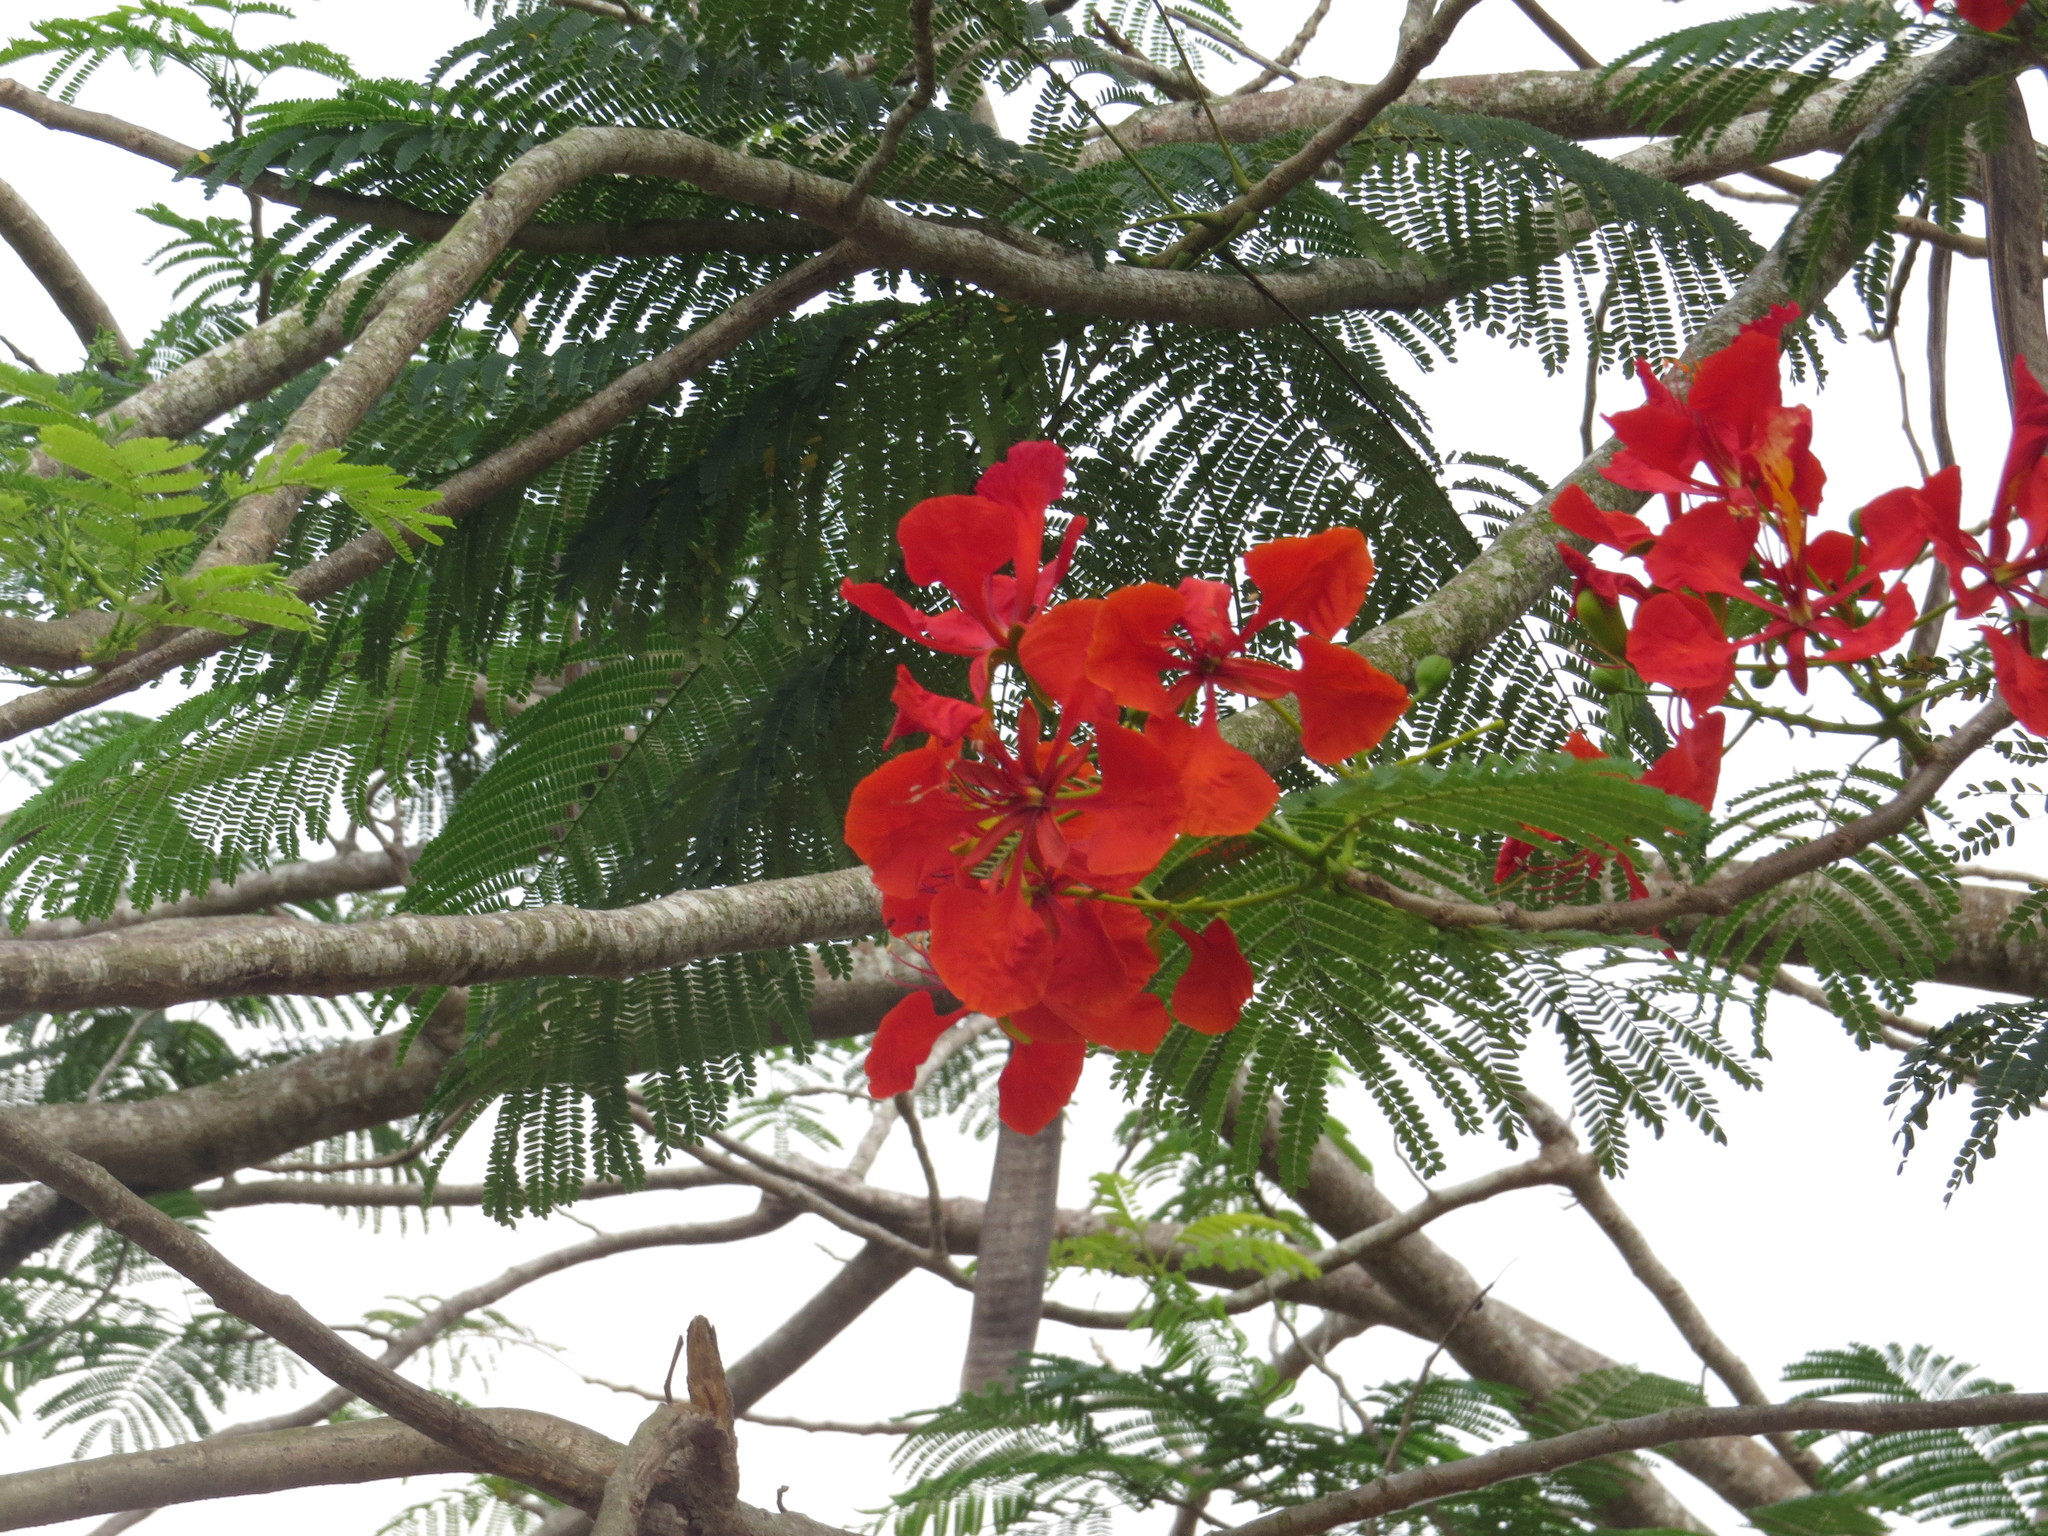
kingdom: Plantae
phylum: Tracheophyta
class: Magnoliopsida
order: Fabales
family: Fabaceae
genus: Delonix
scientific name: Delonix regia
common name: Royal poinciana
